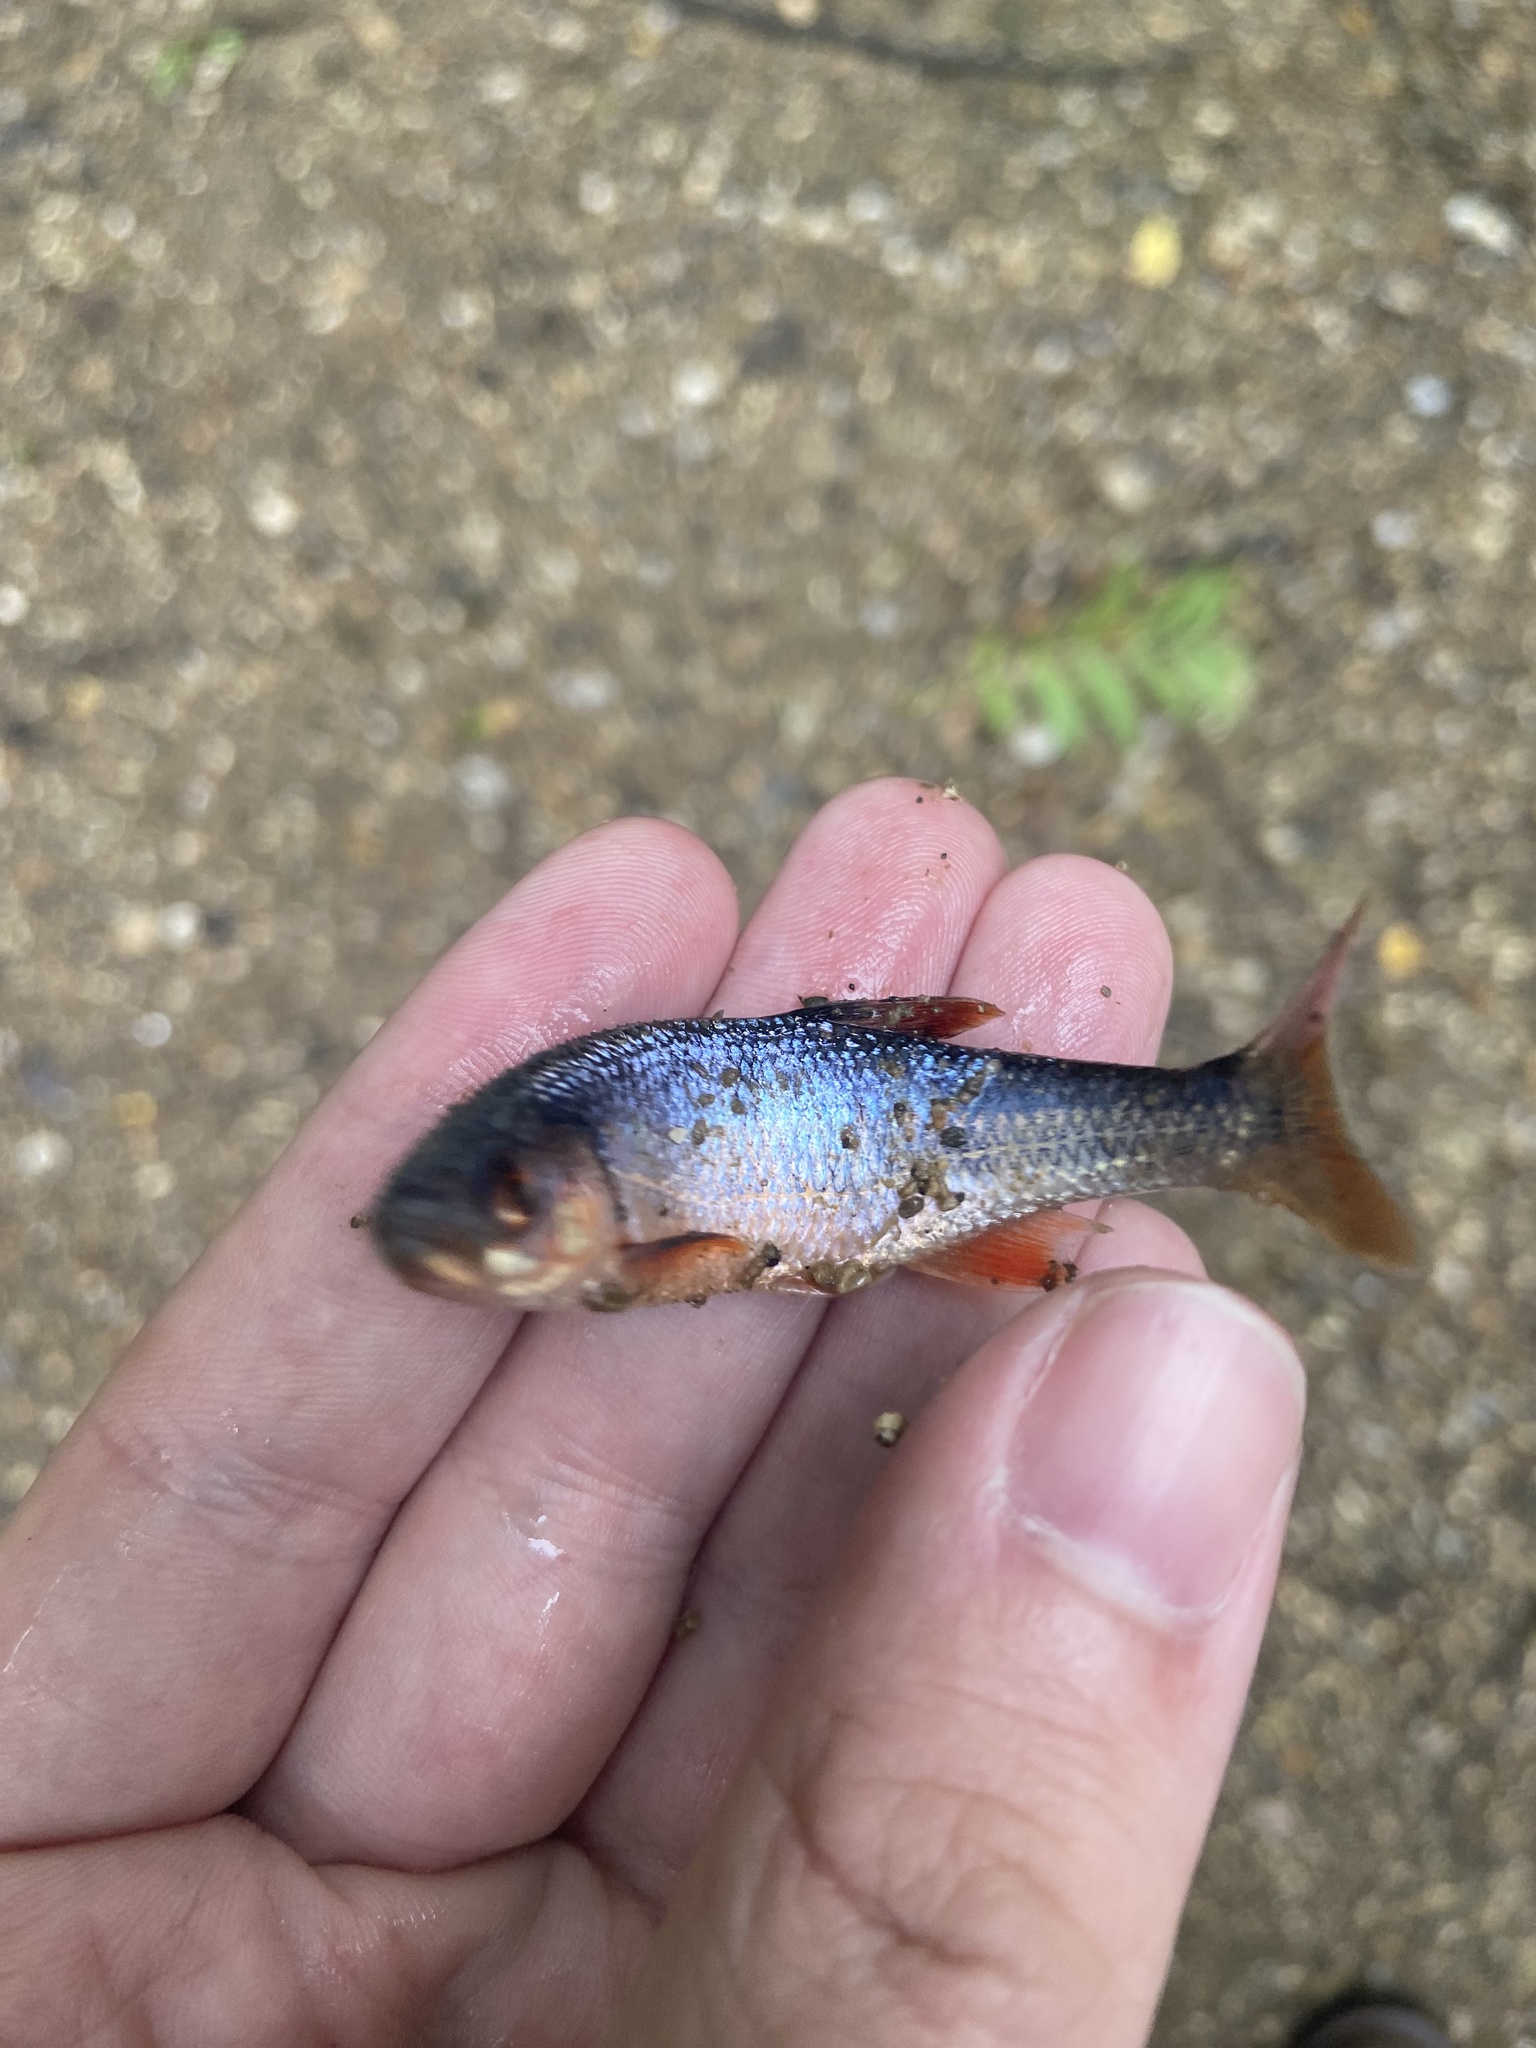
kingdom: Animalia
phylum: Chordata
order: Cypriniformes
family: Cyprinidae
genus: Lythrurus
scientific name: Lythrurus fasciolaris
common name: Scarlet shiner
